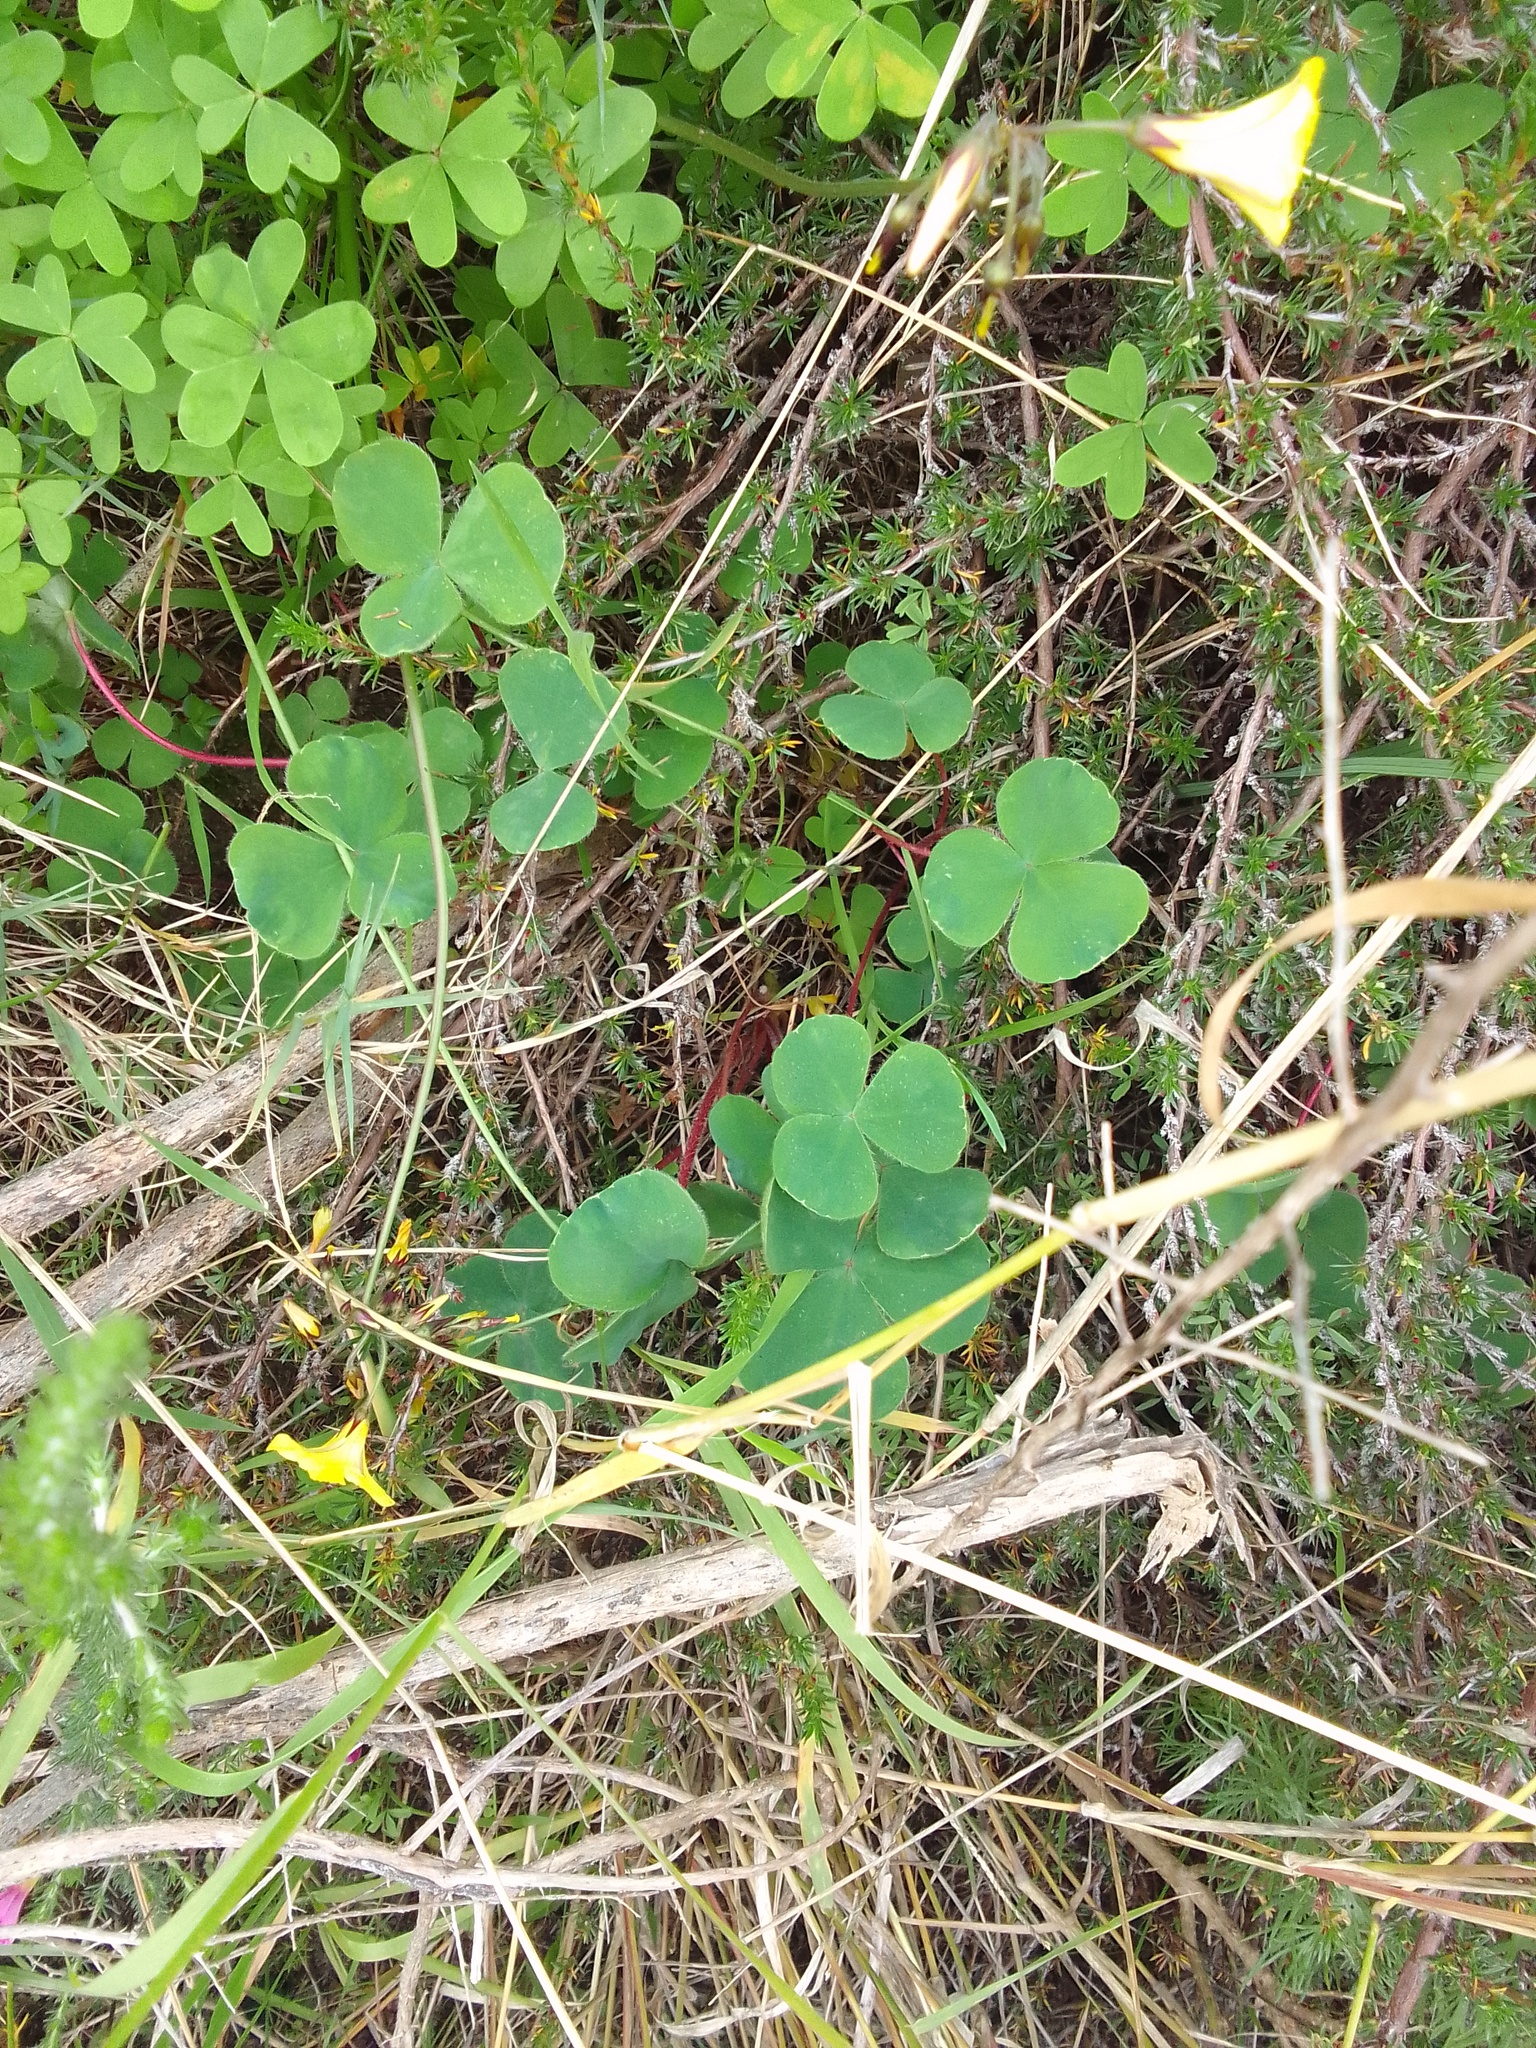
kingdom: Plantae
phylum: Tracheophyta
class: Magnoliopsida
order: Oxalidales
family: Oxalidaceae
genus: Oxalis
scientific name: Oxalis purpurea
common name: Purple woodsorrel
